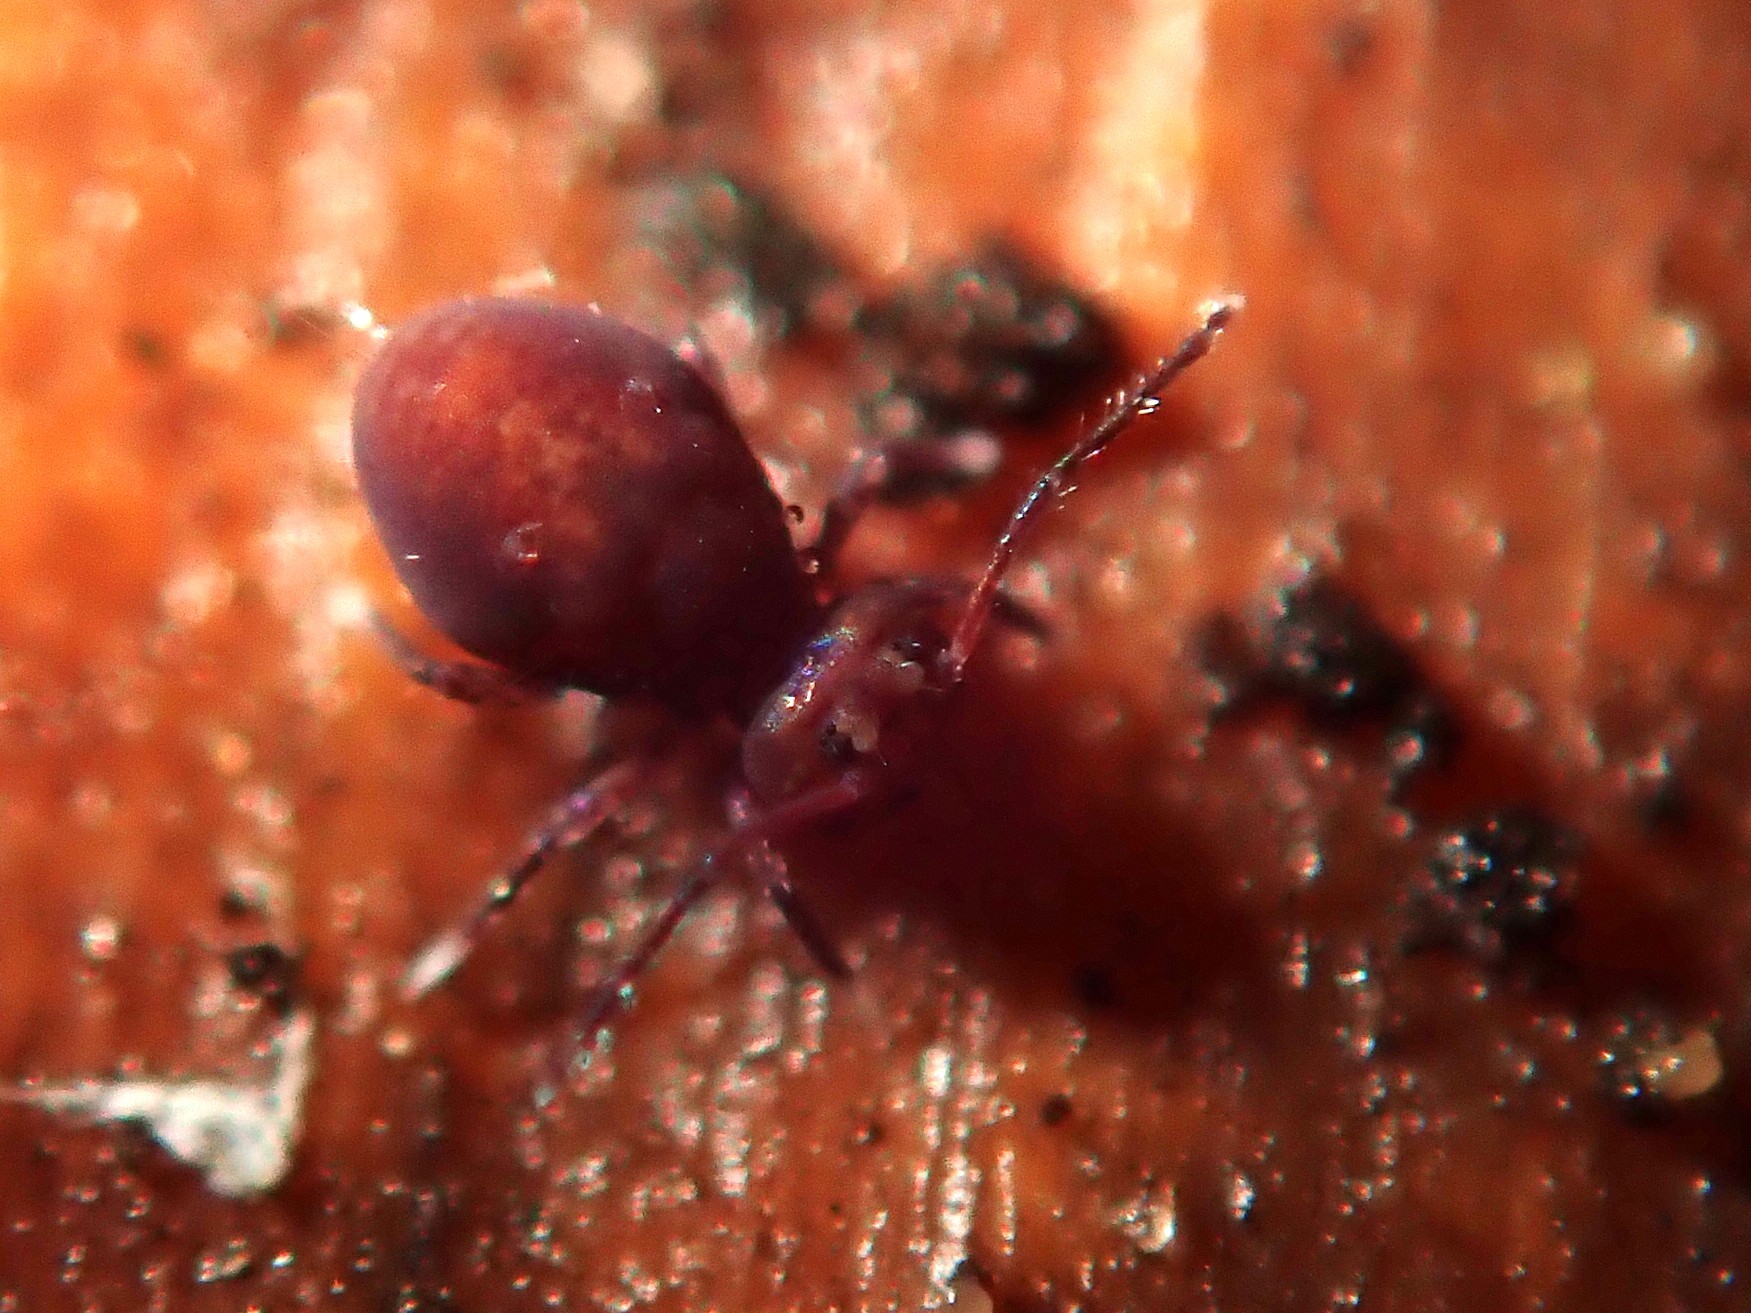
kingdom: Animalia
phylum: Arthropoda
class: Collembola
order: Symphypleona
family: Dicyrtomidae
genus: Dicyrtoma
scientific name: Dicyrtoma fusca
